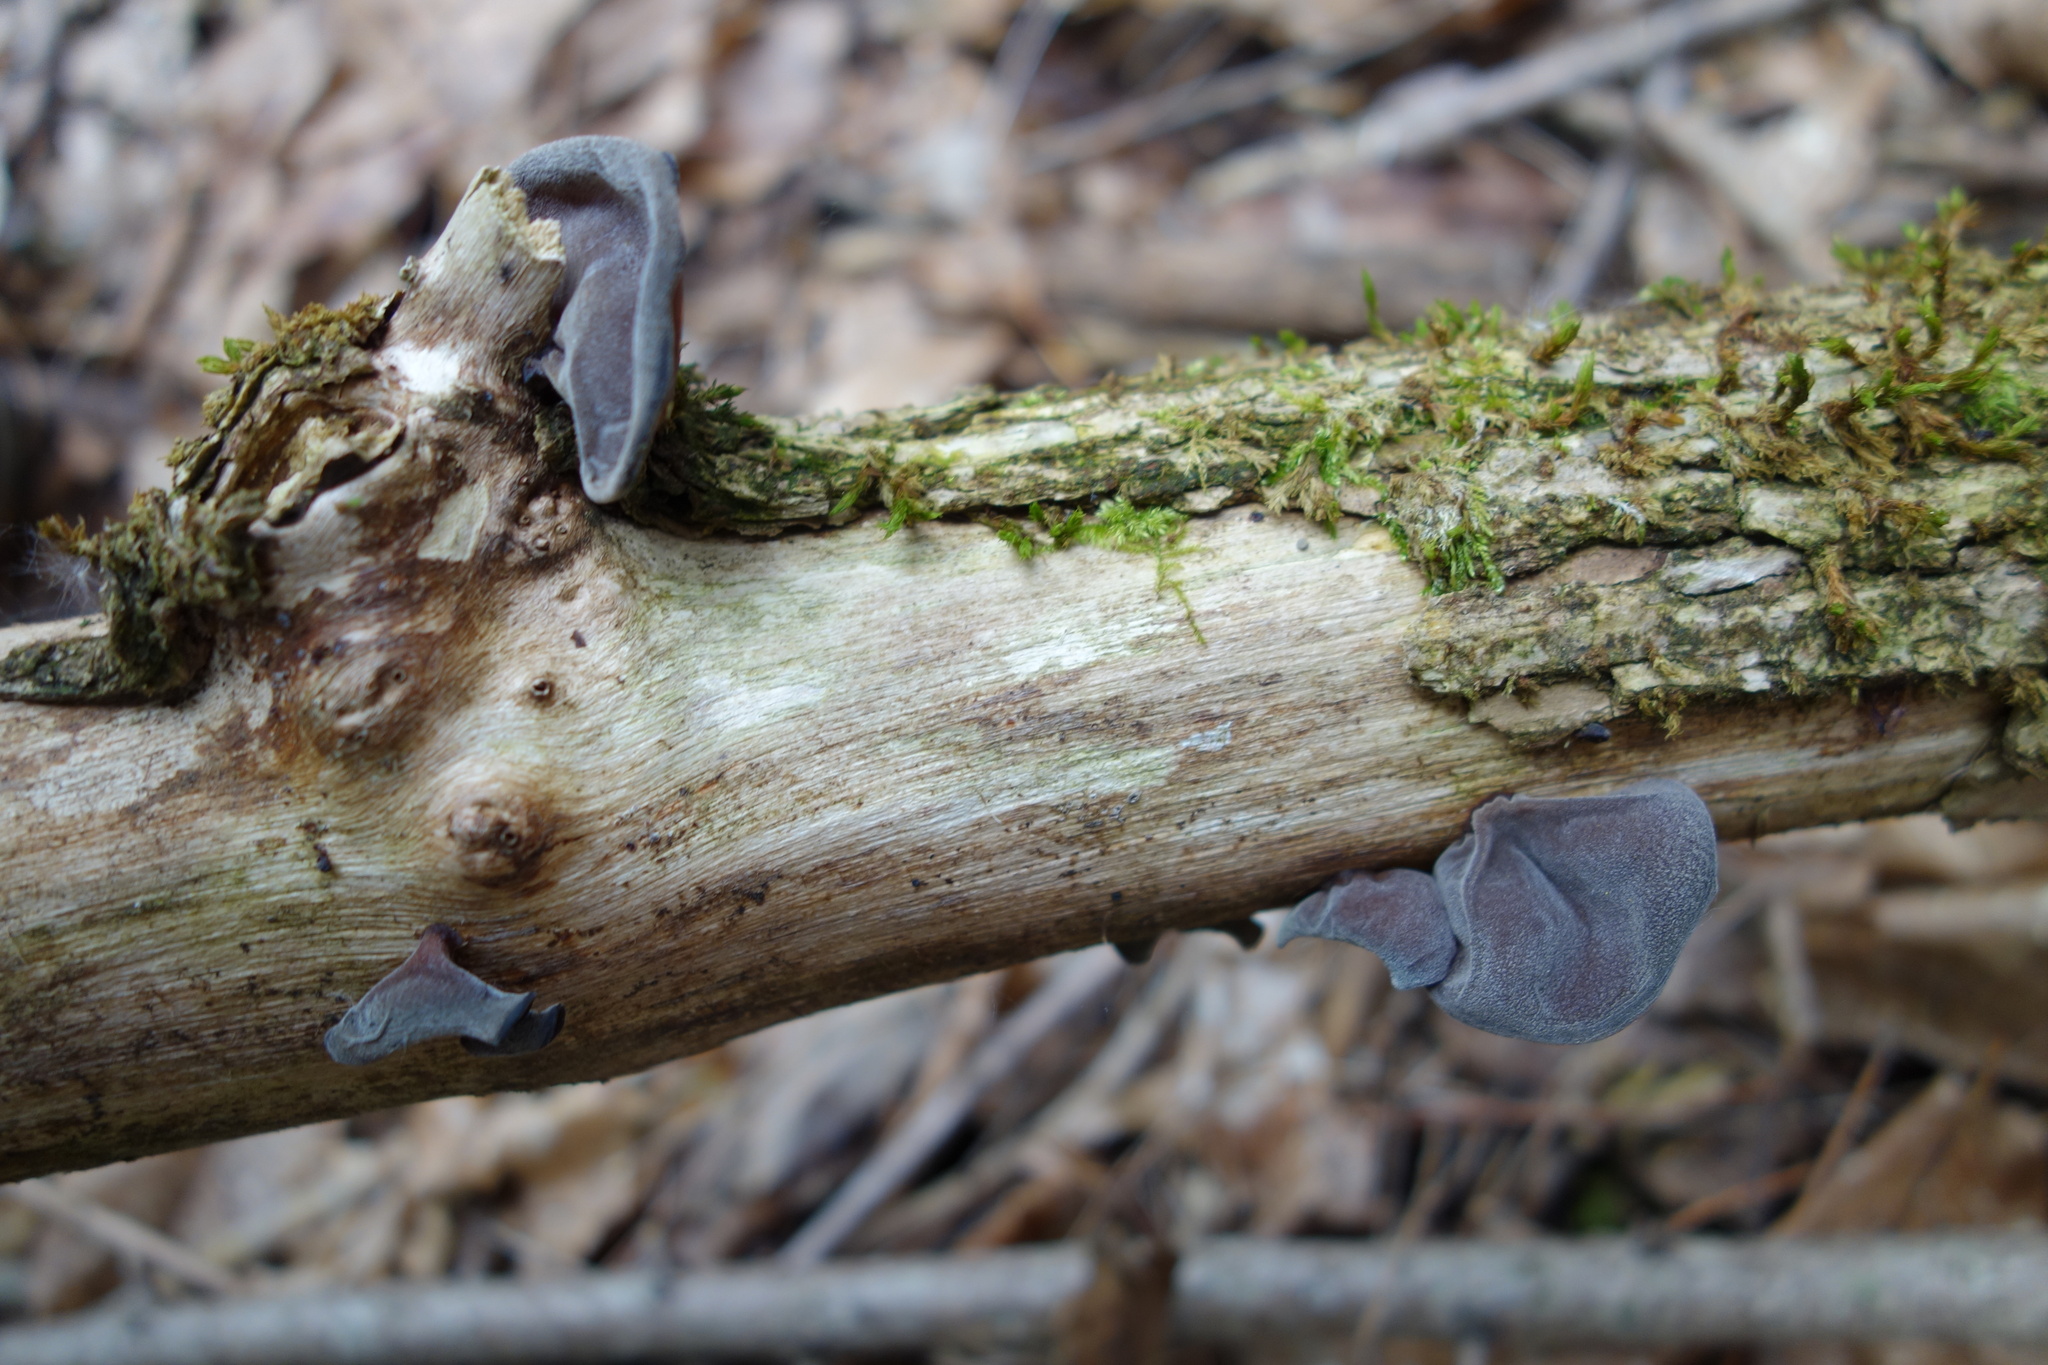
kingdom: Fungi
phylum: Basidiomycota
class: Agaricomycetes
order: Auriculariales
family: Auriculariaceae
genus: Auricularia
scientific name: Auricularia auricula-judae
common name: Jelly ear
